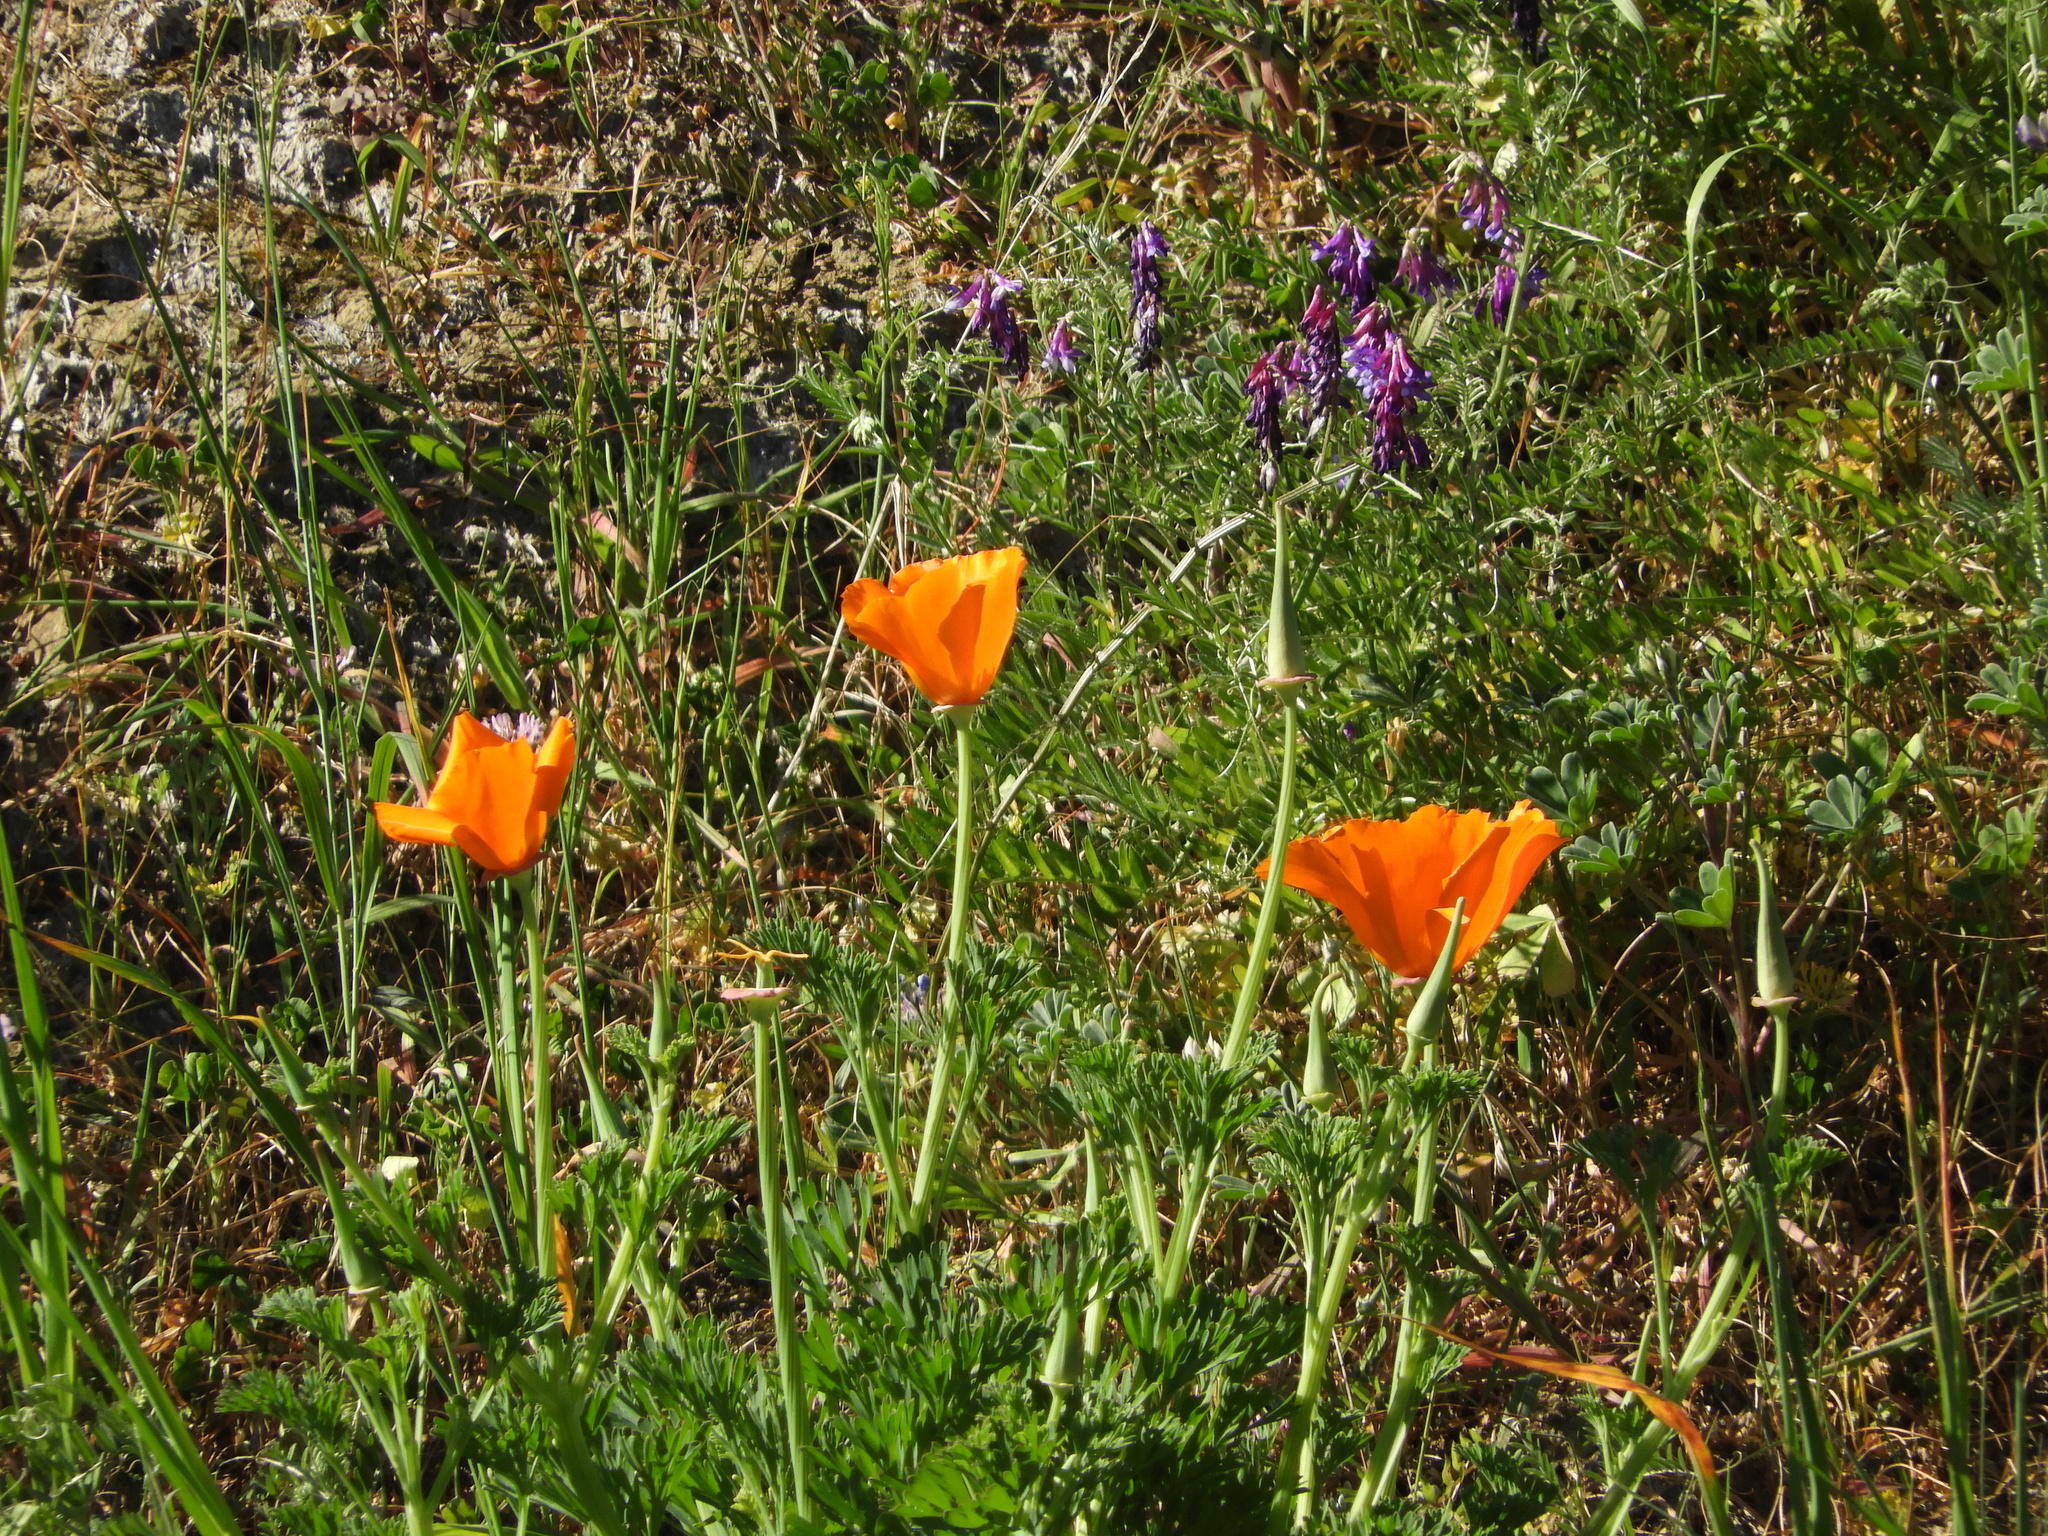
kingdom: Plantae
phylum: Tracheophyta
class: Magnoliopsida
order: Ranunculales
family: Papaveraceae
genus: Eschscholzia
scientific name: Eschscholzia californica
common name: California poppy
